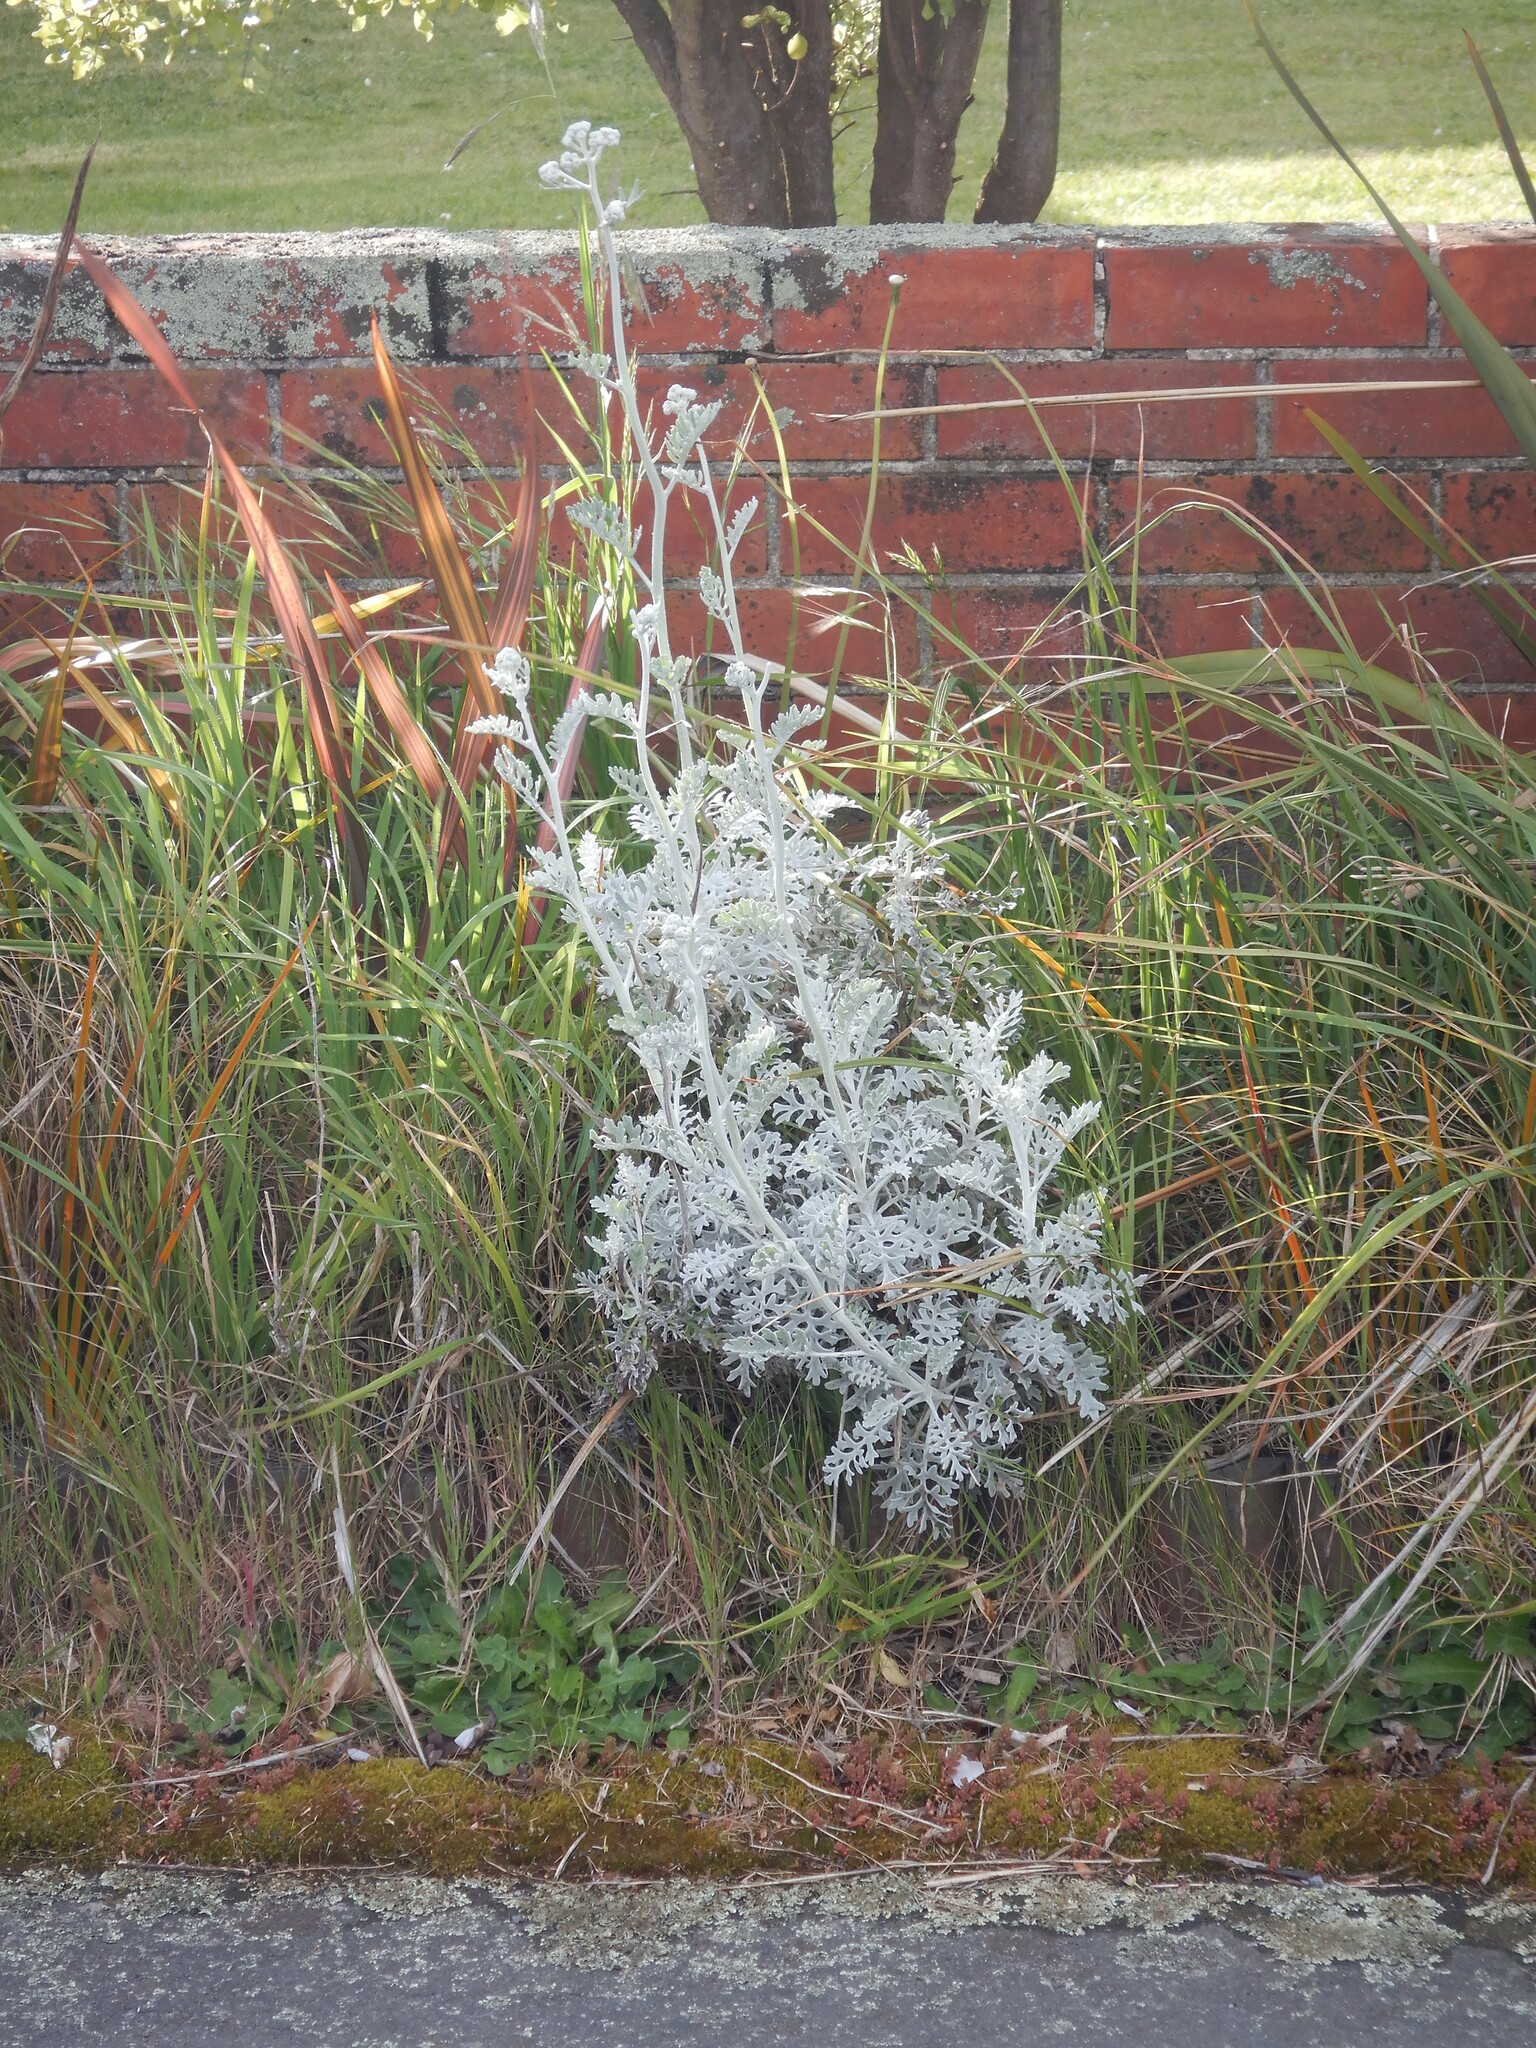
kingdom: Plantae
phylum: Tracheophyta
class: Magnoliopsida
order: Asterales
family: Asteraceae
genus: Jacobaea
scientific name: Jacobaea maritima
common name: Silver ragwort
